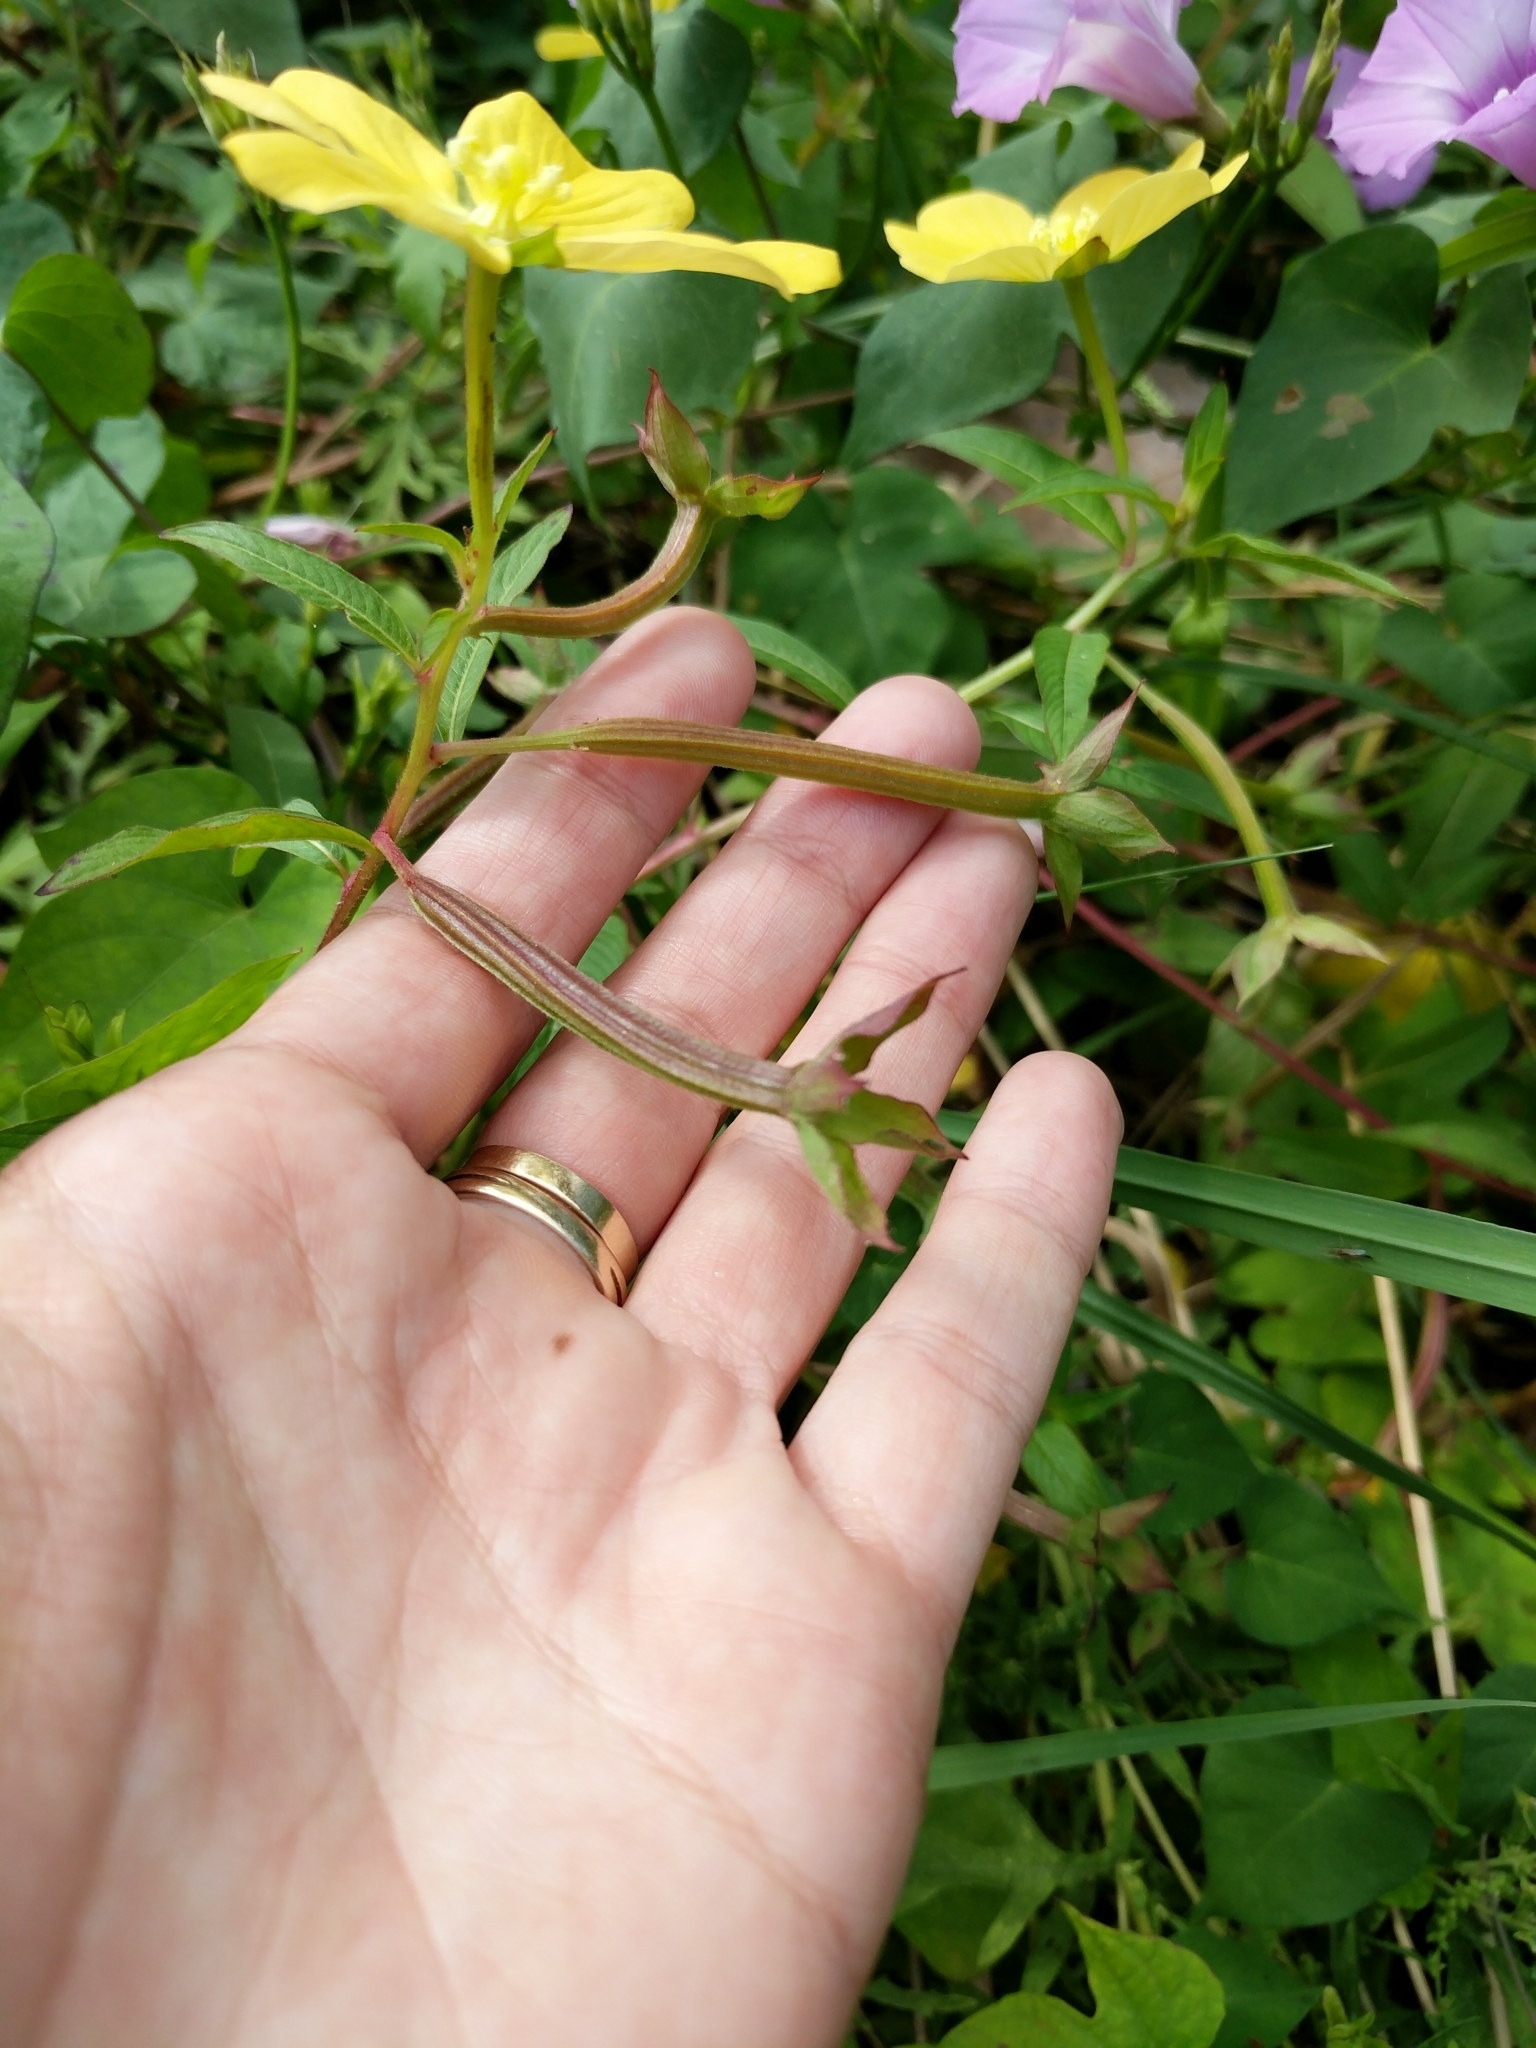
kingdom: Plantae
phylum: Tracheophyta
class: Magnoliopsida
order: Myrtales
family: Onagraceae
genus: Ludwigia
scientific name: Ludwigia octovalvis
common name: Water-primrose
